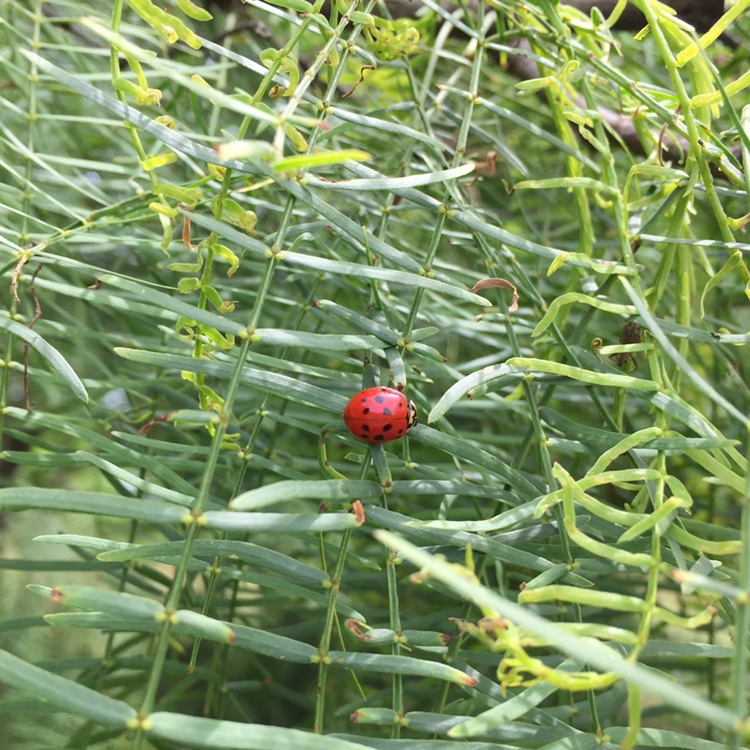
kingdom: Animalia
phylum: Arthropoda
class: Insecta
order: Coleoptera
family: Coccinellidae
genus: Harmonia
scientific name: Harmonia axyridis
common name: Harlequin ladybird
